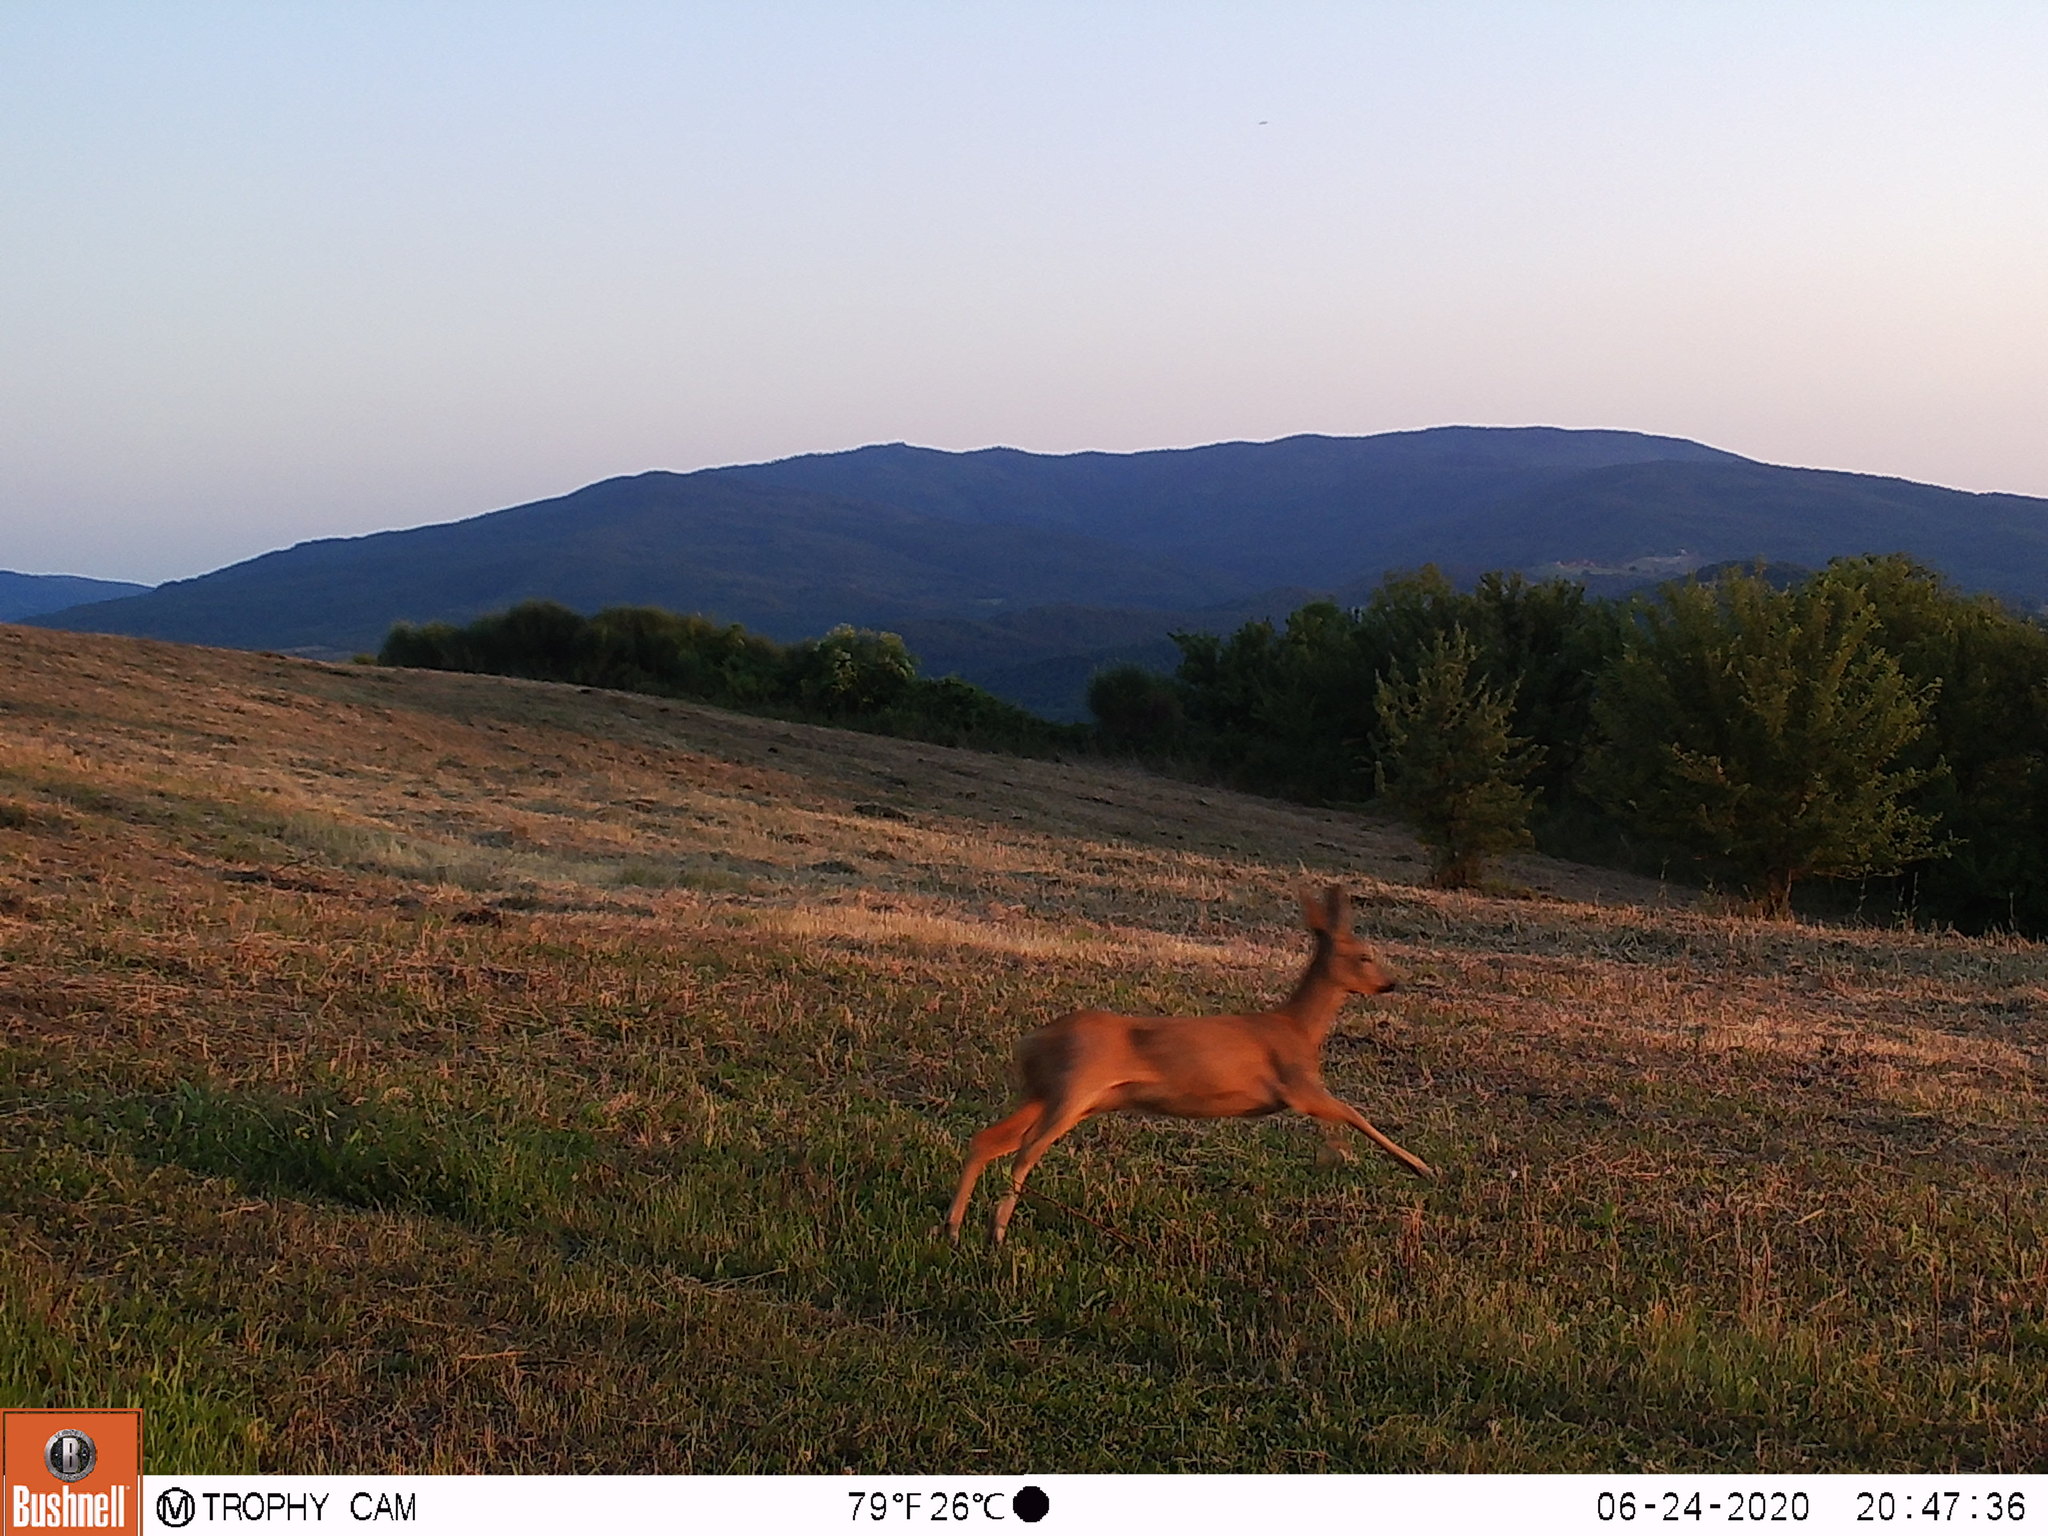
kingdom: Animalia
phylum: Chordata
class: Mammalia
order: Artiodactyla
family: Cervidae
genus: Capreolus
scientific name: Capreolus capreolus
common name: Western roe deer
